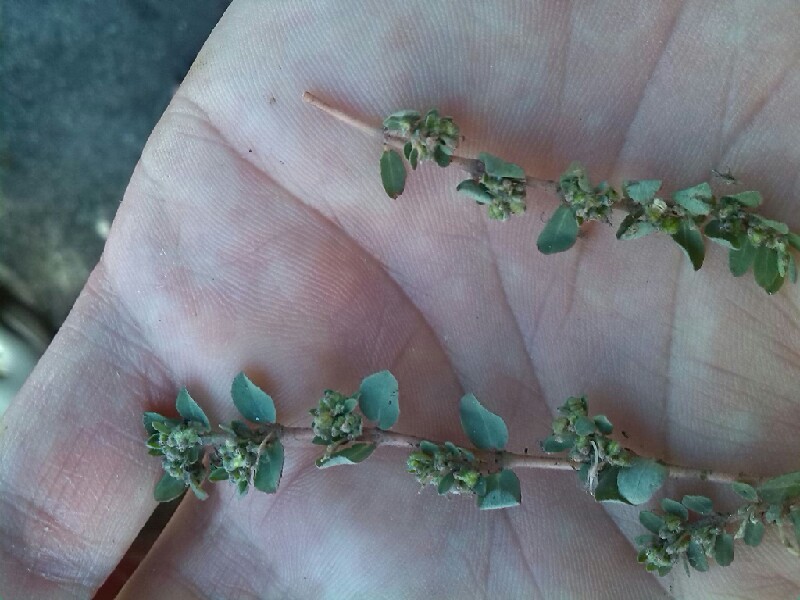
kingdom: Plantae
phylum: Tracheophyta
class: Magnoliopsida
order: Malpighiales
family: Euphorbiaceae
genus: Euphorbia
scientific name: Euphorbia prostrata
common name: Prostrate sandmat
